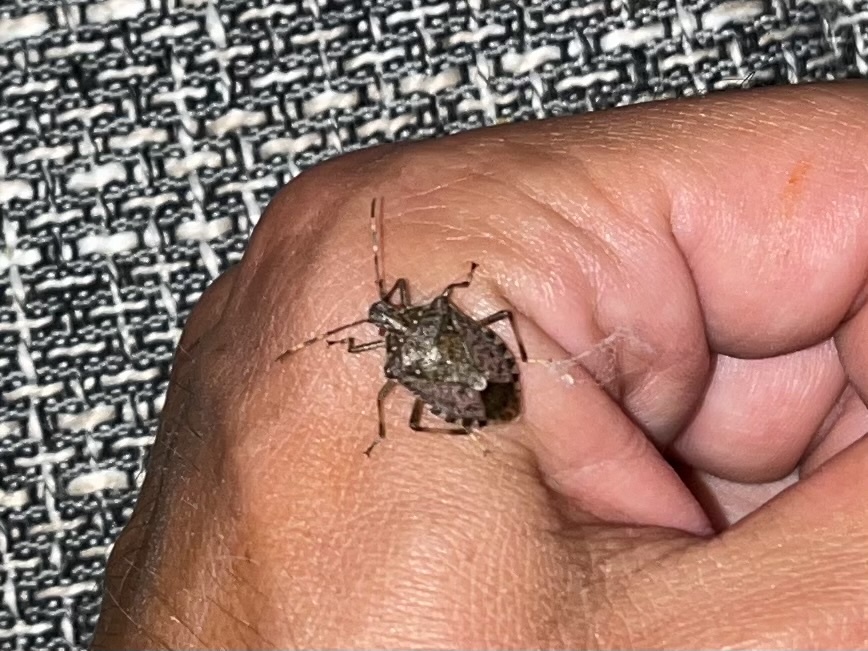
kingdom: Animalia
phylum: Arthropoda
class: Insecta
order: Hemiptera
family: Pentatomidae
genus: Halyomorpha
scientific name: Halyomorpha halys
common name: Brown marmorated stink bug
